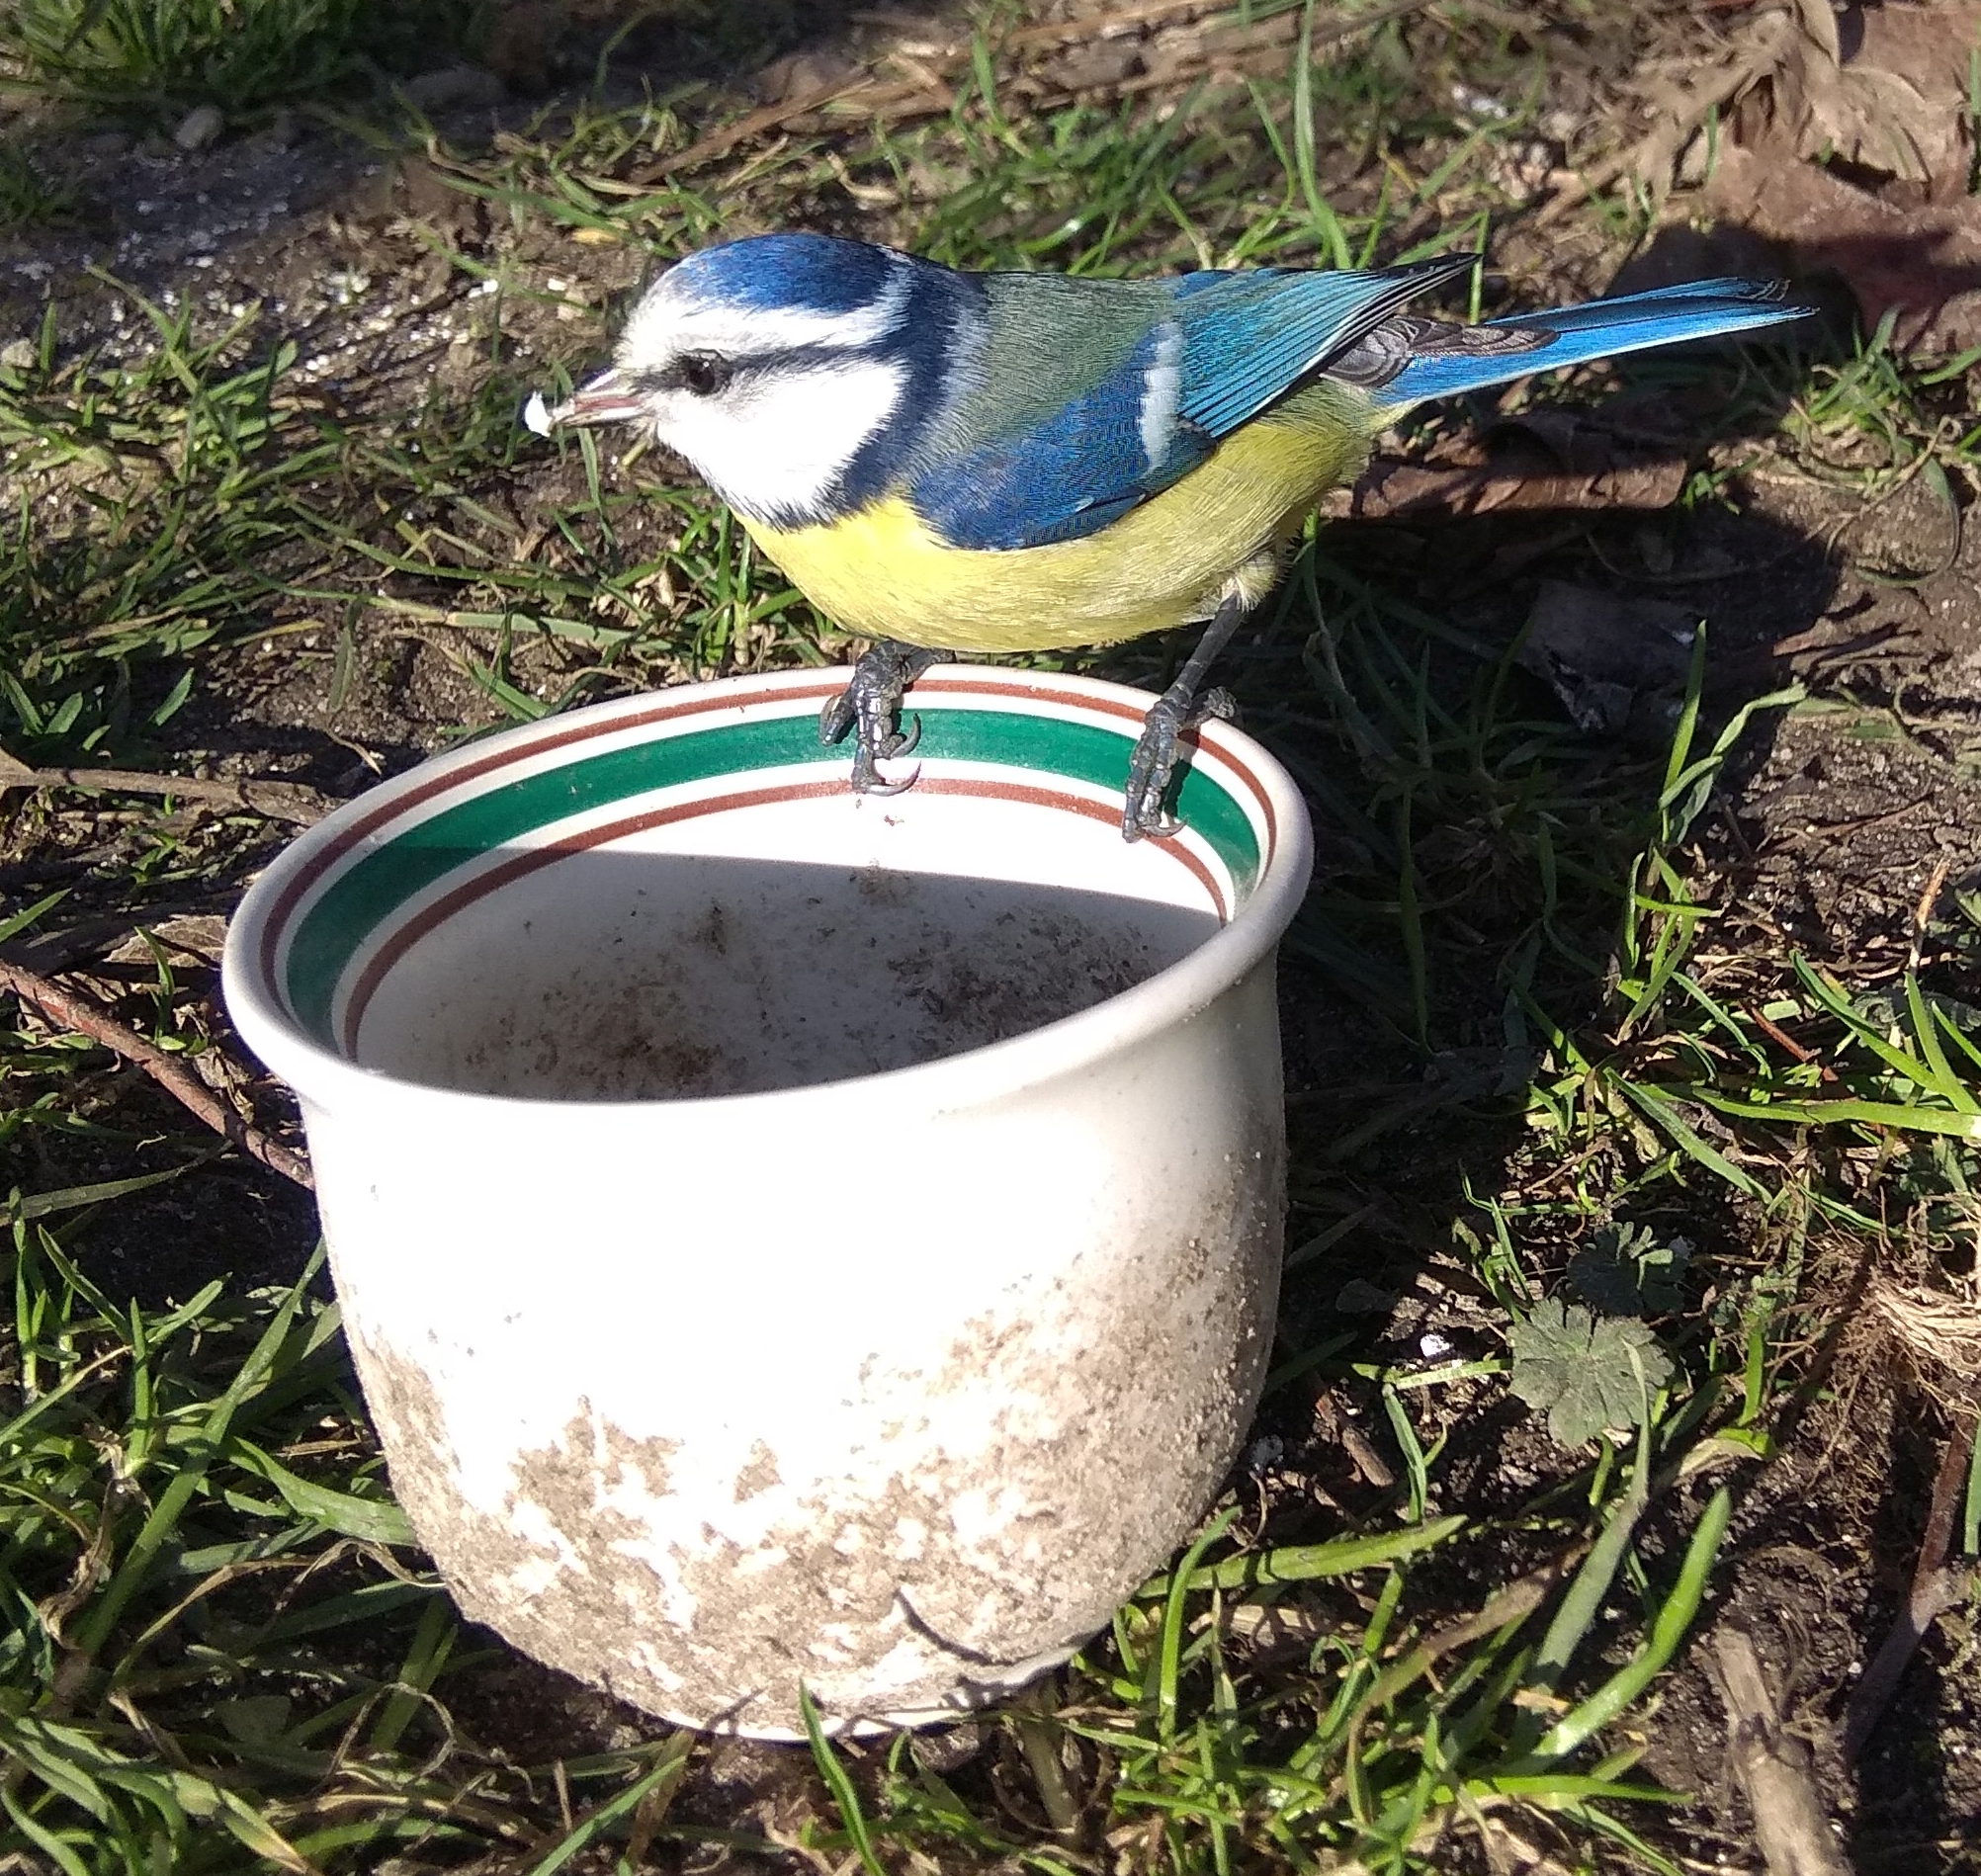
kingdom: Animalia
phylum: Chordata
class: Aves
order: Passeriformes
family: Paridae
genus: Cyanistes
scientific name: Cyanistes caeruleus
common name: Eurasian blue tit
